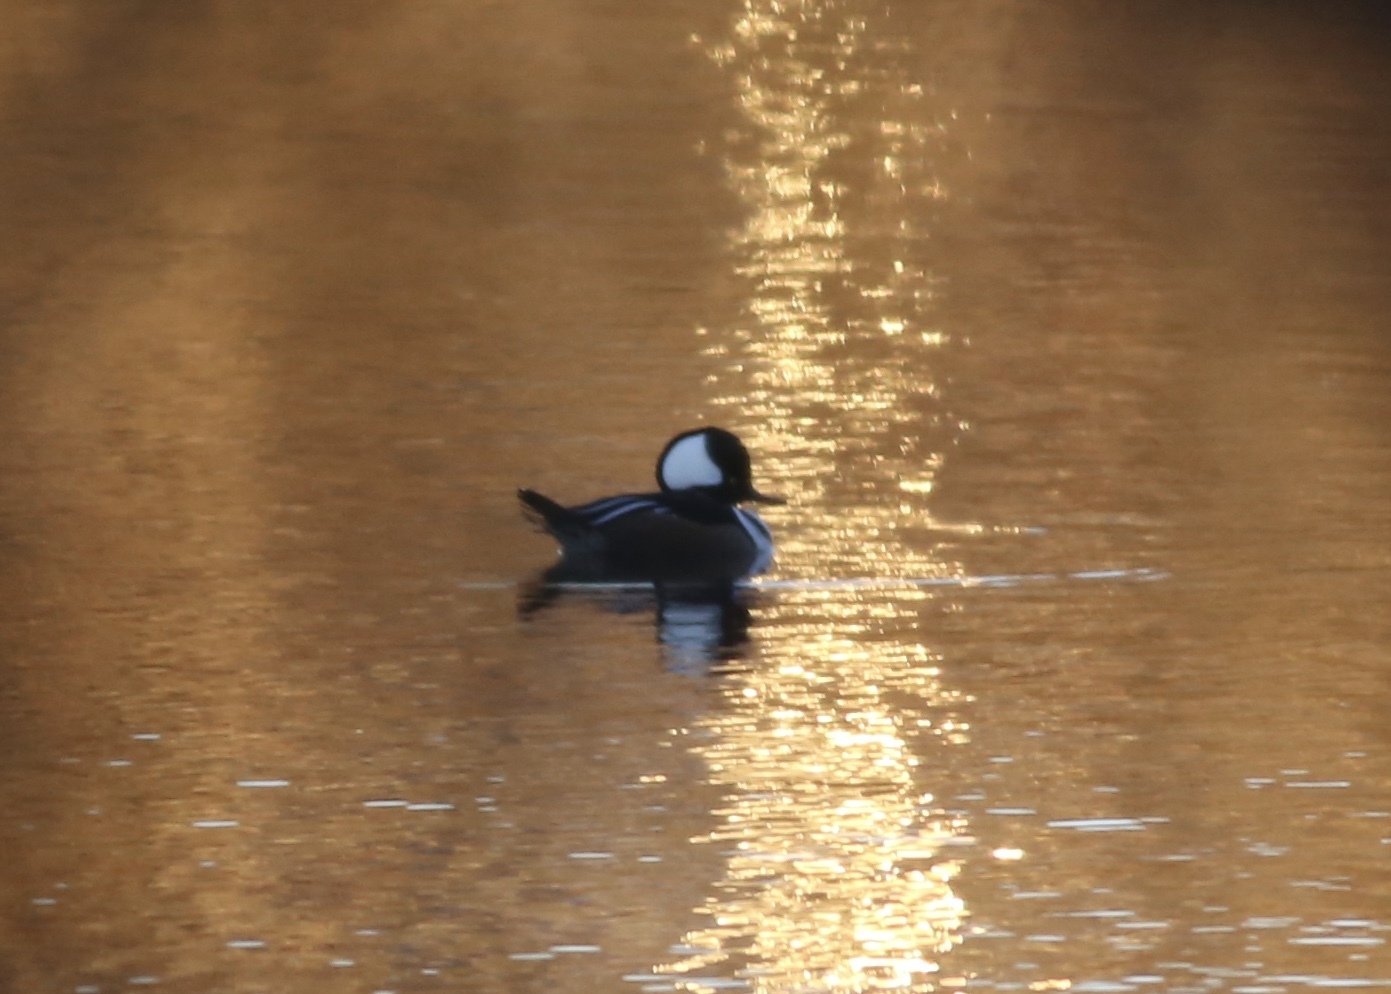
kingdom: Animalia
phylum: Chordata
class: Aves
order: Anseriformes
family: Anatidae
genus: Lophodytes
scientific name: Lophodytes cucullatus
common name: Hooded merganser
